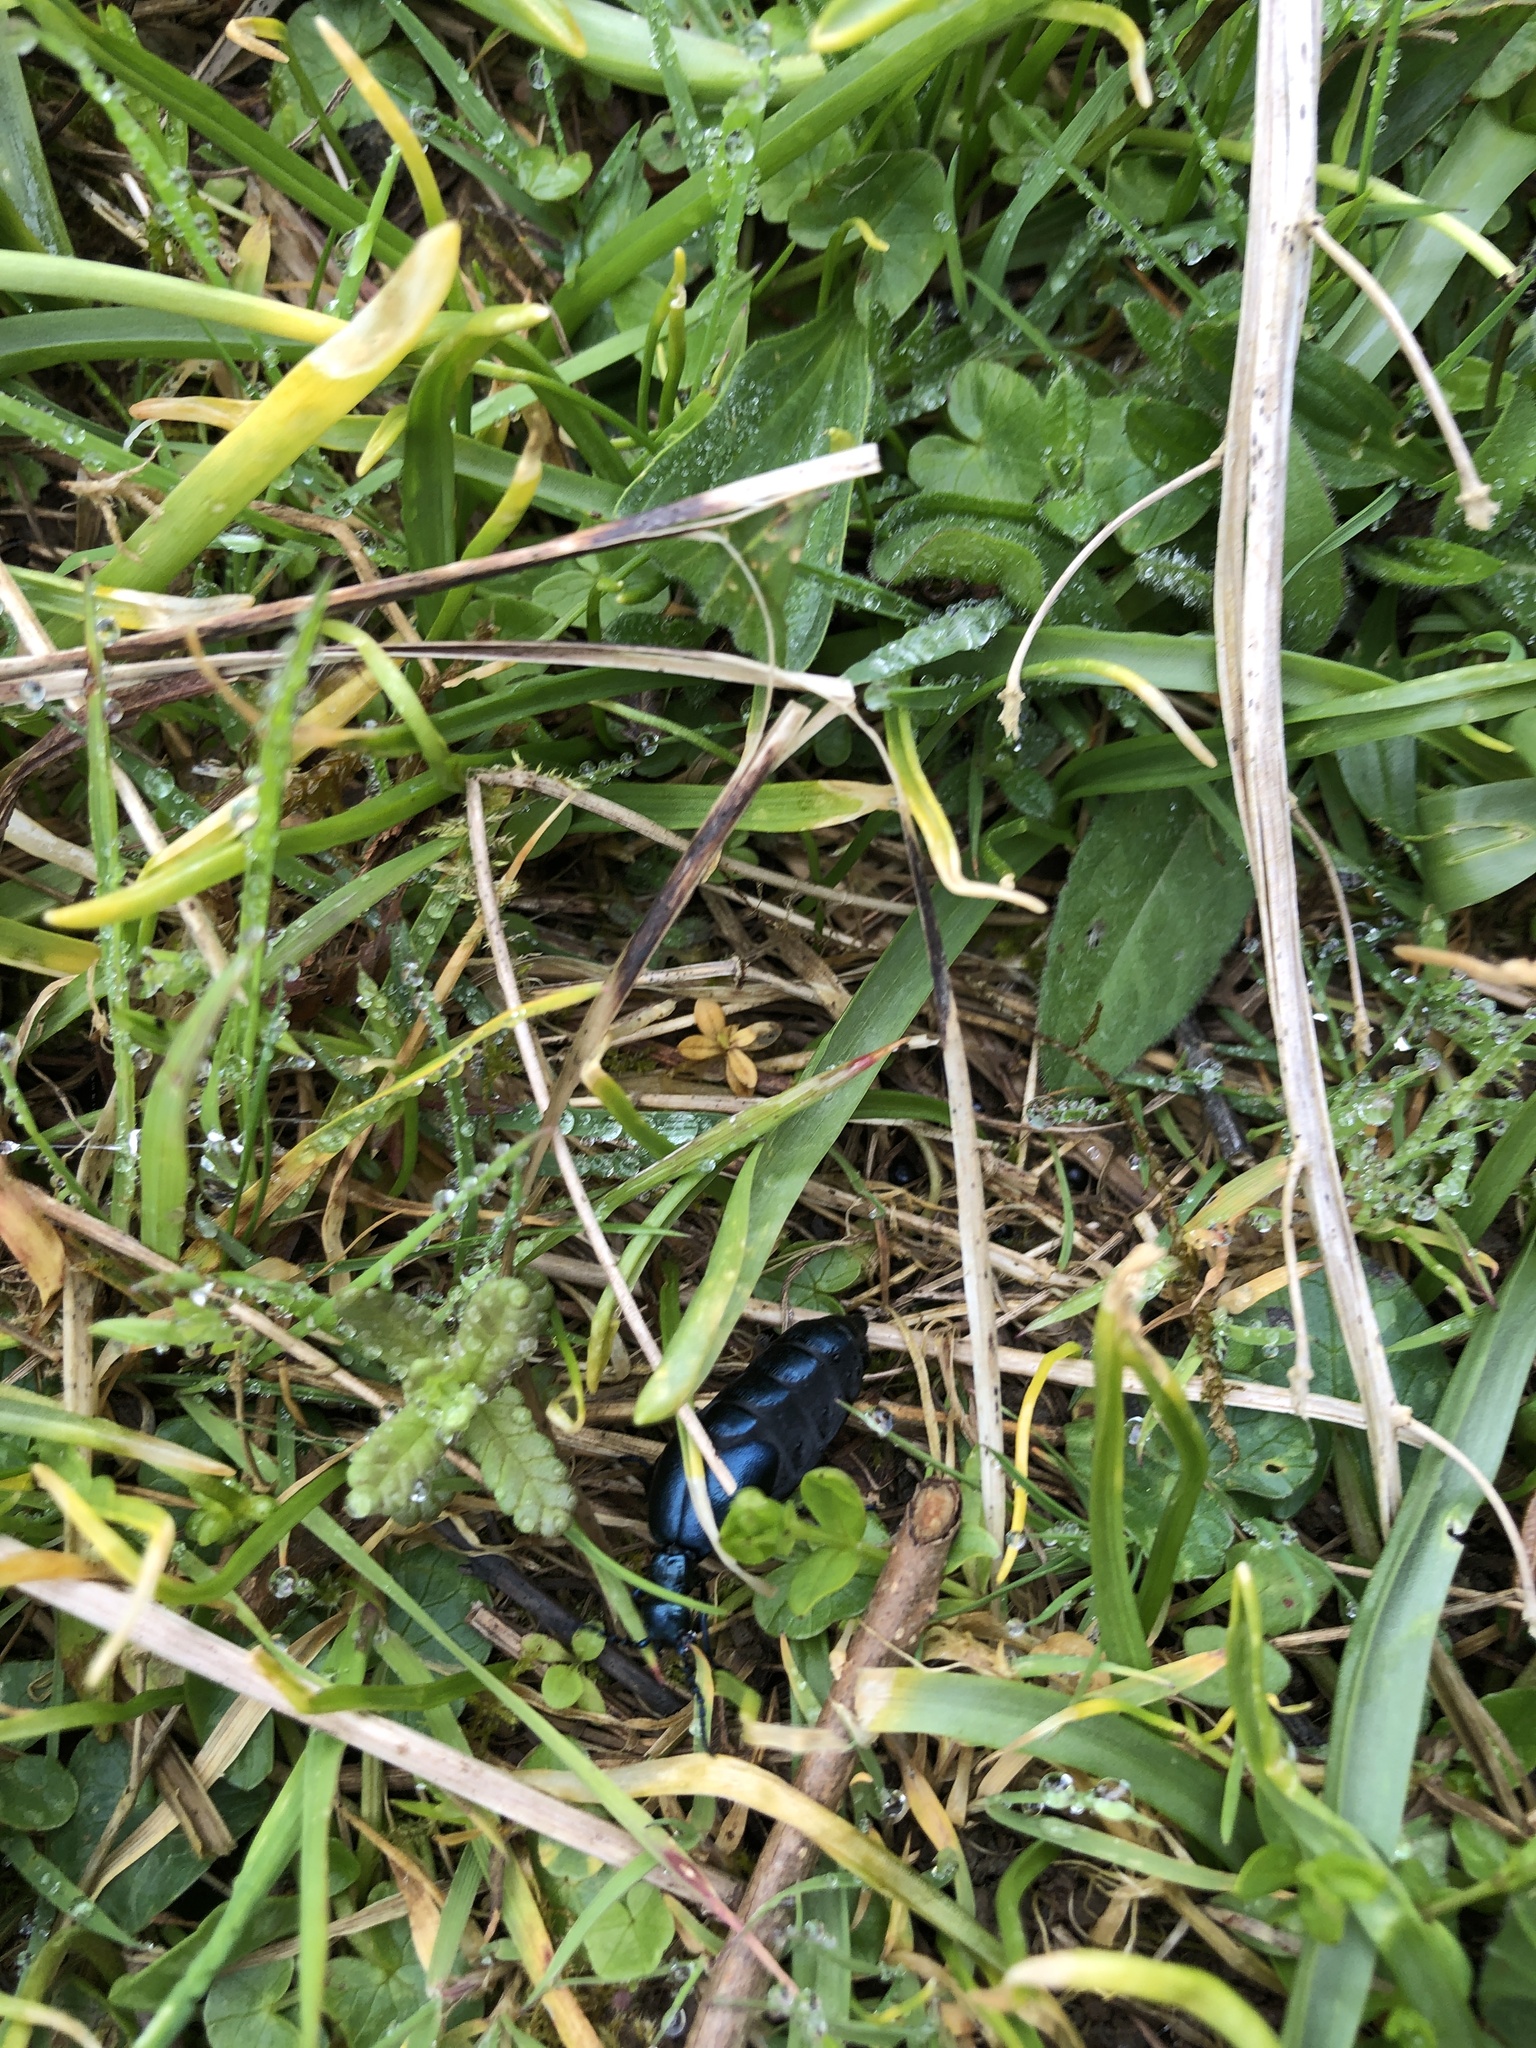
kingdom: Animalia
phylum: Arthropoda
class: Insecta
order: Coleoptera
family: Meloidae
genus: Meloe
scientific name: Meloe violaceus
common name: Violet oil-beetle
